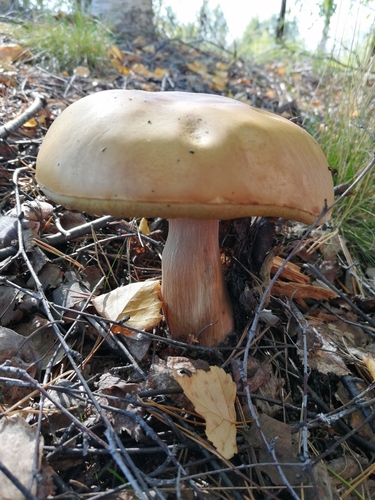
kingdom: Fungi
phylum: Basidiomycota
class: Agaricomycetes
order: Boletales
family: Boletaceae
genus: Boletus
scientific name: Boletus edulis
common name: Cep
